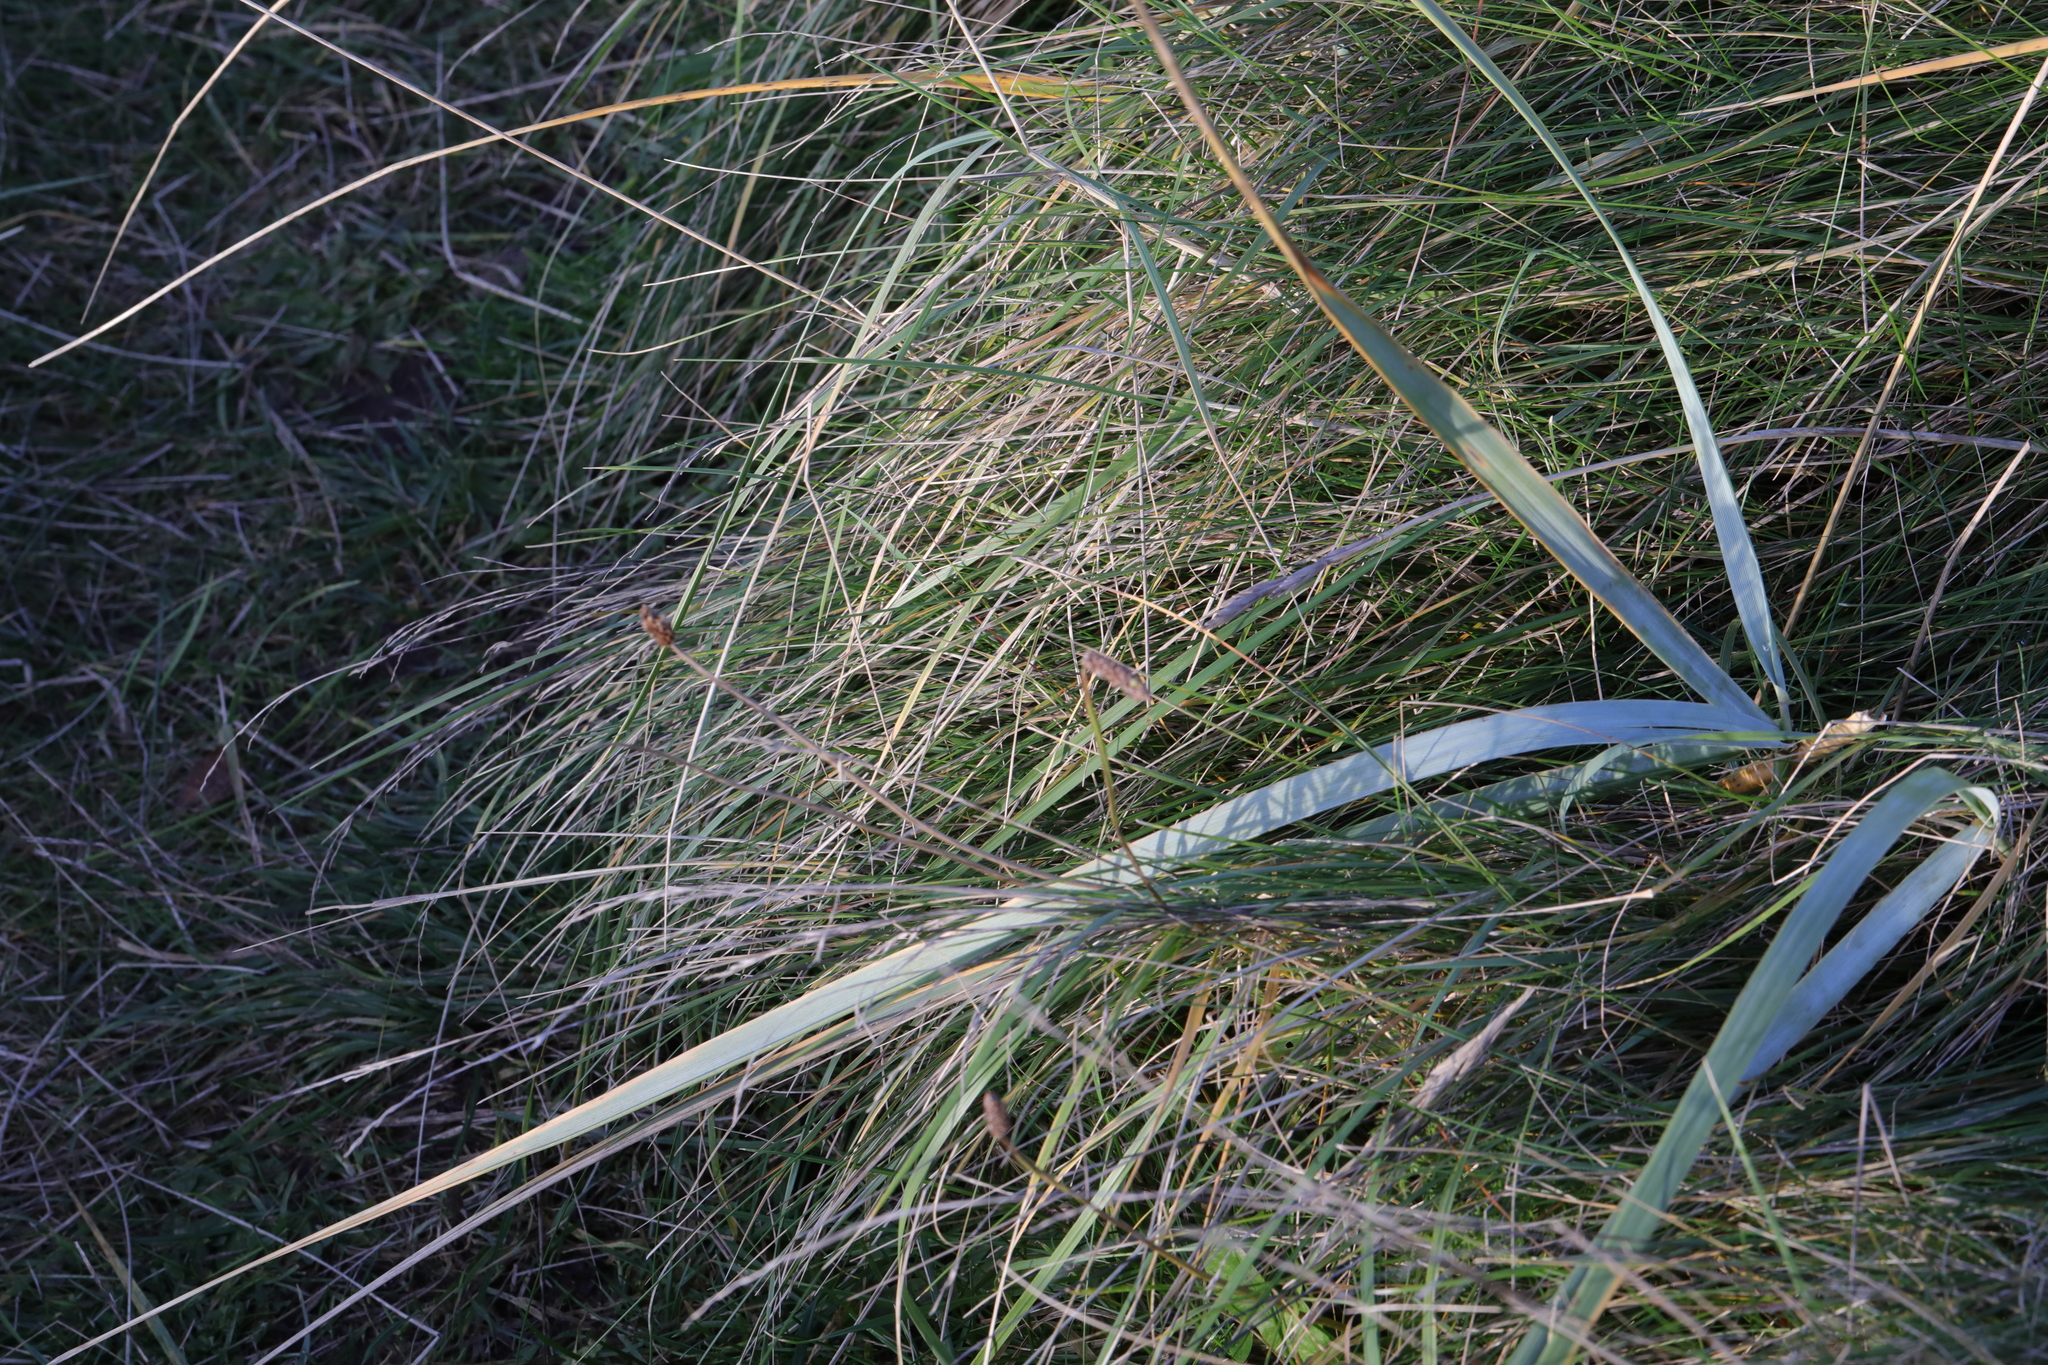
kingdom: Plantae
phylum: Tracheophyta
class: Liliopsida
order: Poales
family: Poaceae
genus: Leymus
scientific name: Leymus arenarius
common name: Lyme-grass
